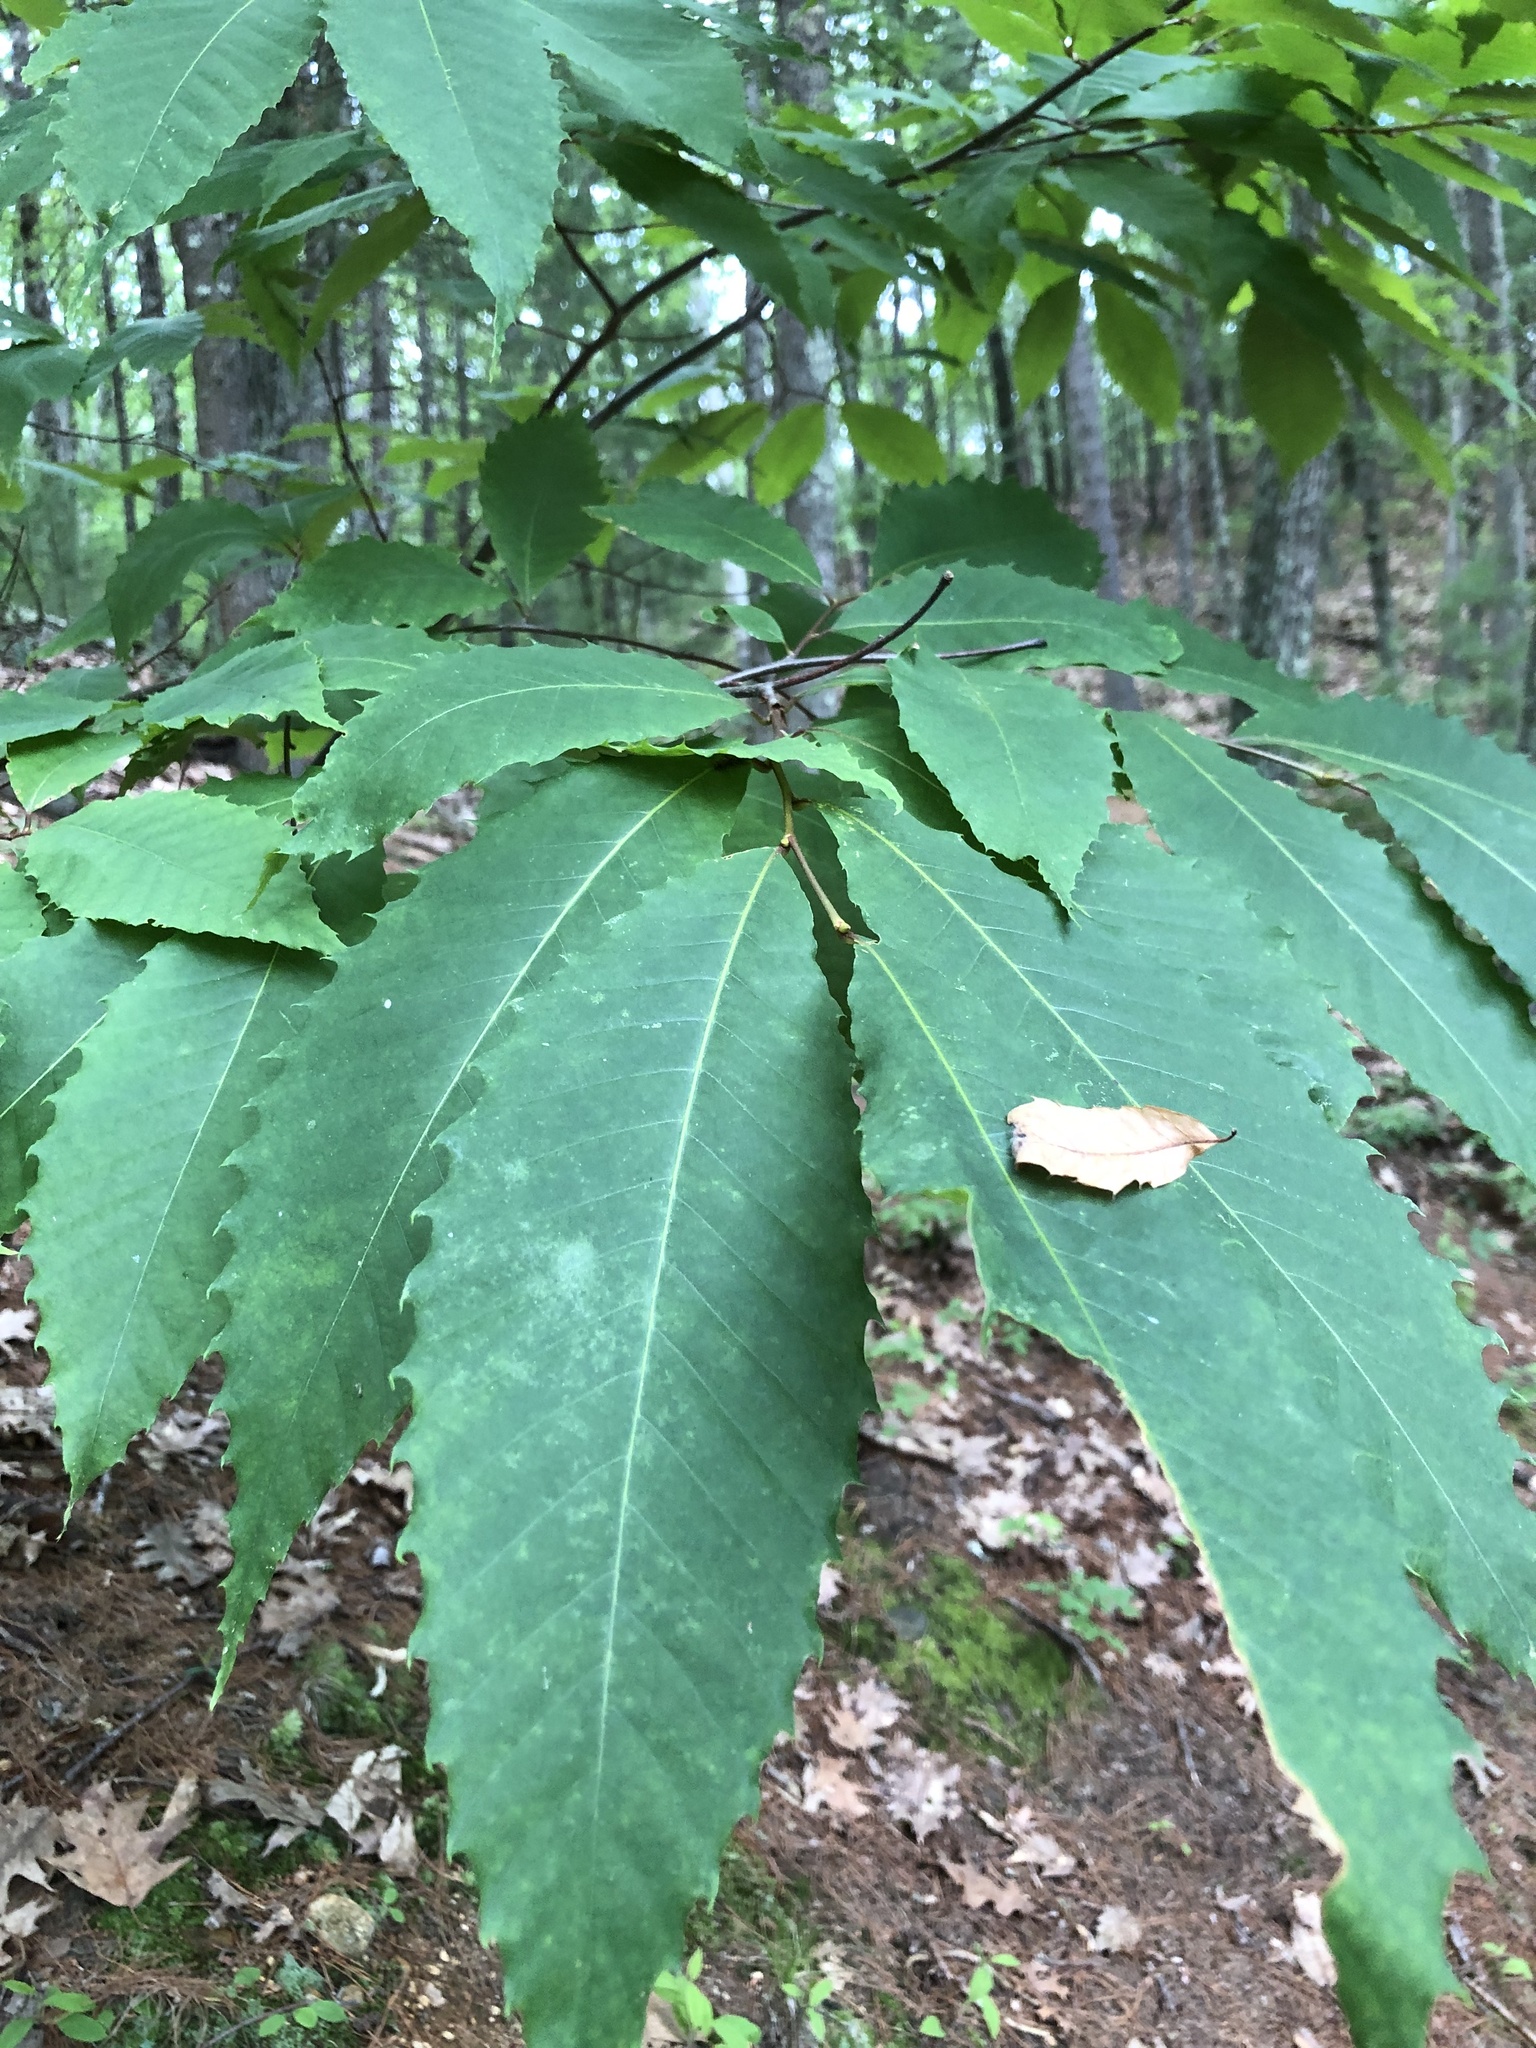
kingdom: Plantae
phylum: Tracheophyta
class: Magnoliopsida
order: Fagales
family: Fagaceae
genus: Castanea
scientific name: Castanea dentata
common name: American chestnut
